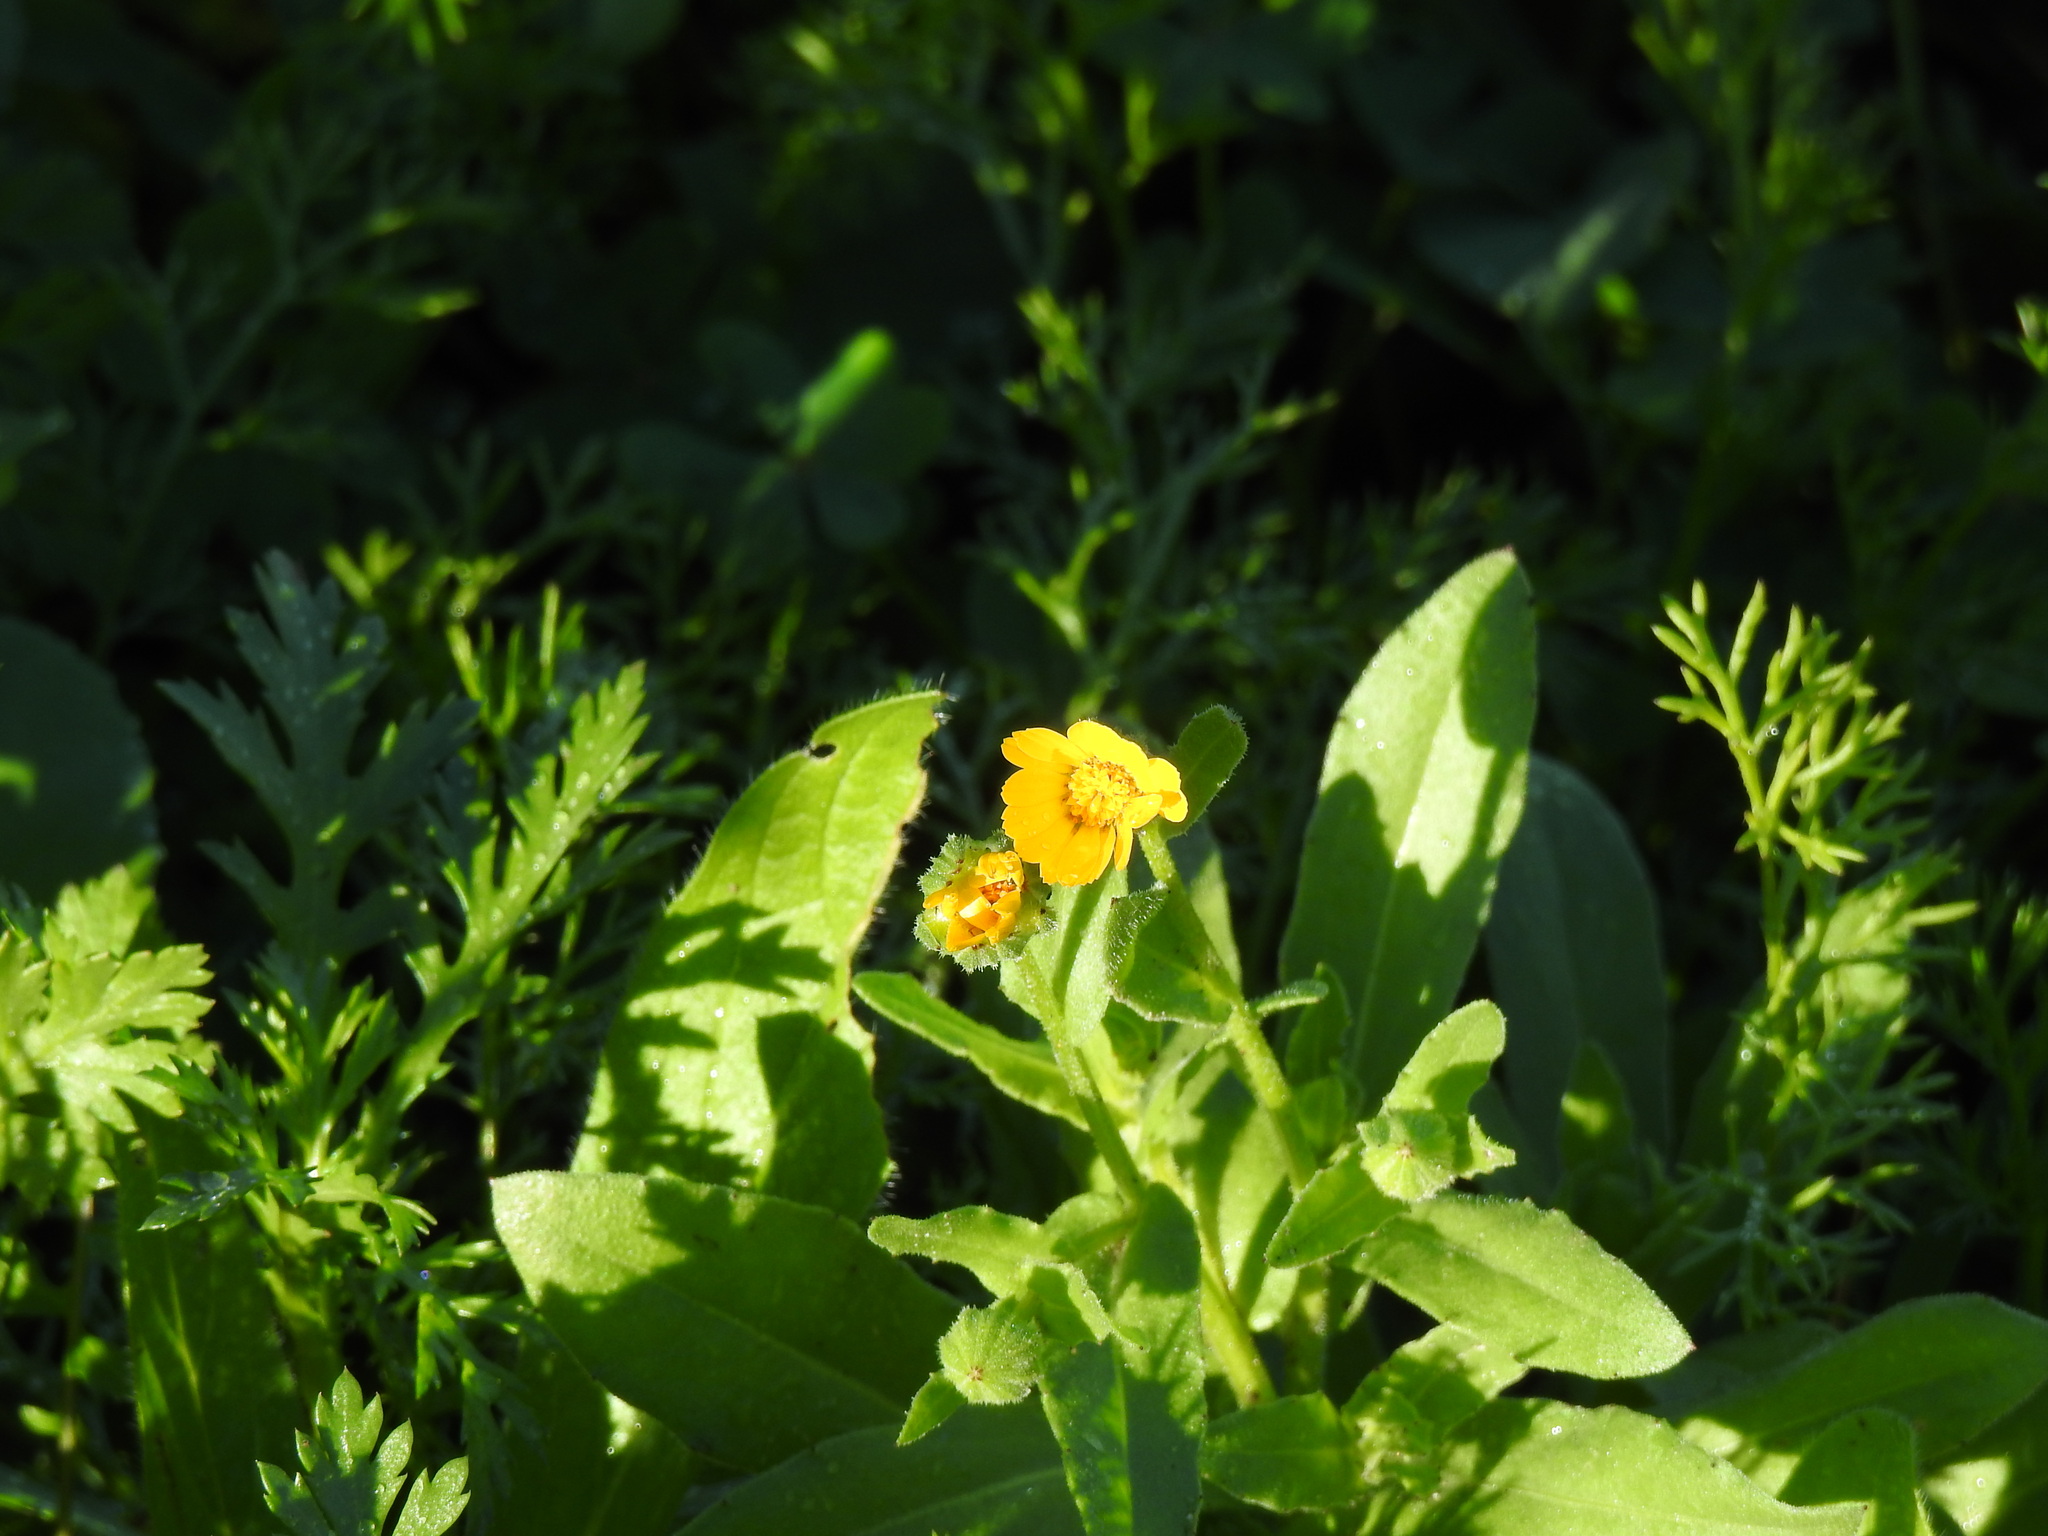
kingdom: Plantae
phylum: Tracheophyta
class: Magnoliopsida
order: Asterales
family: Asteraceae
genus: Calendula
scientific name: Calendula arvensis
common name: Field marigold
